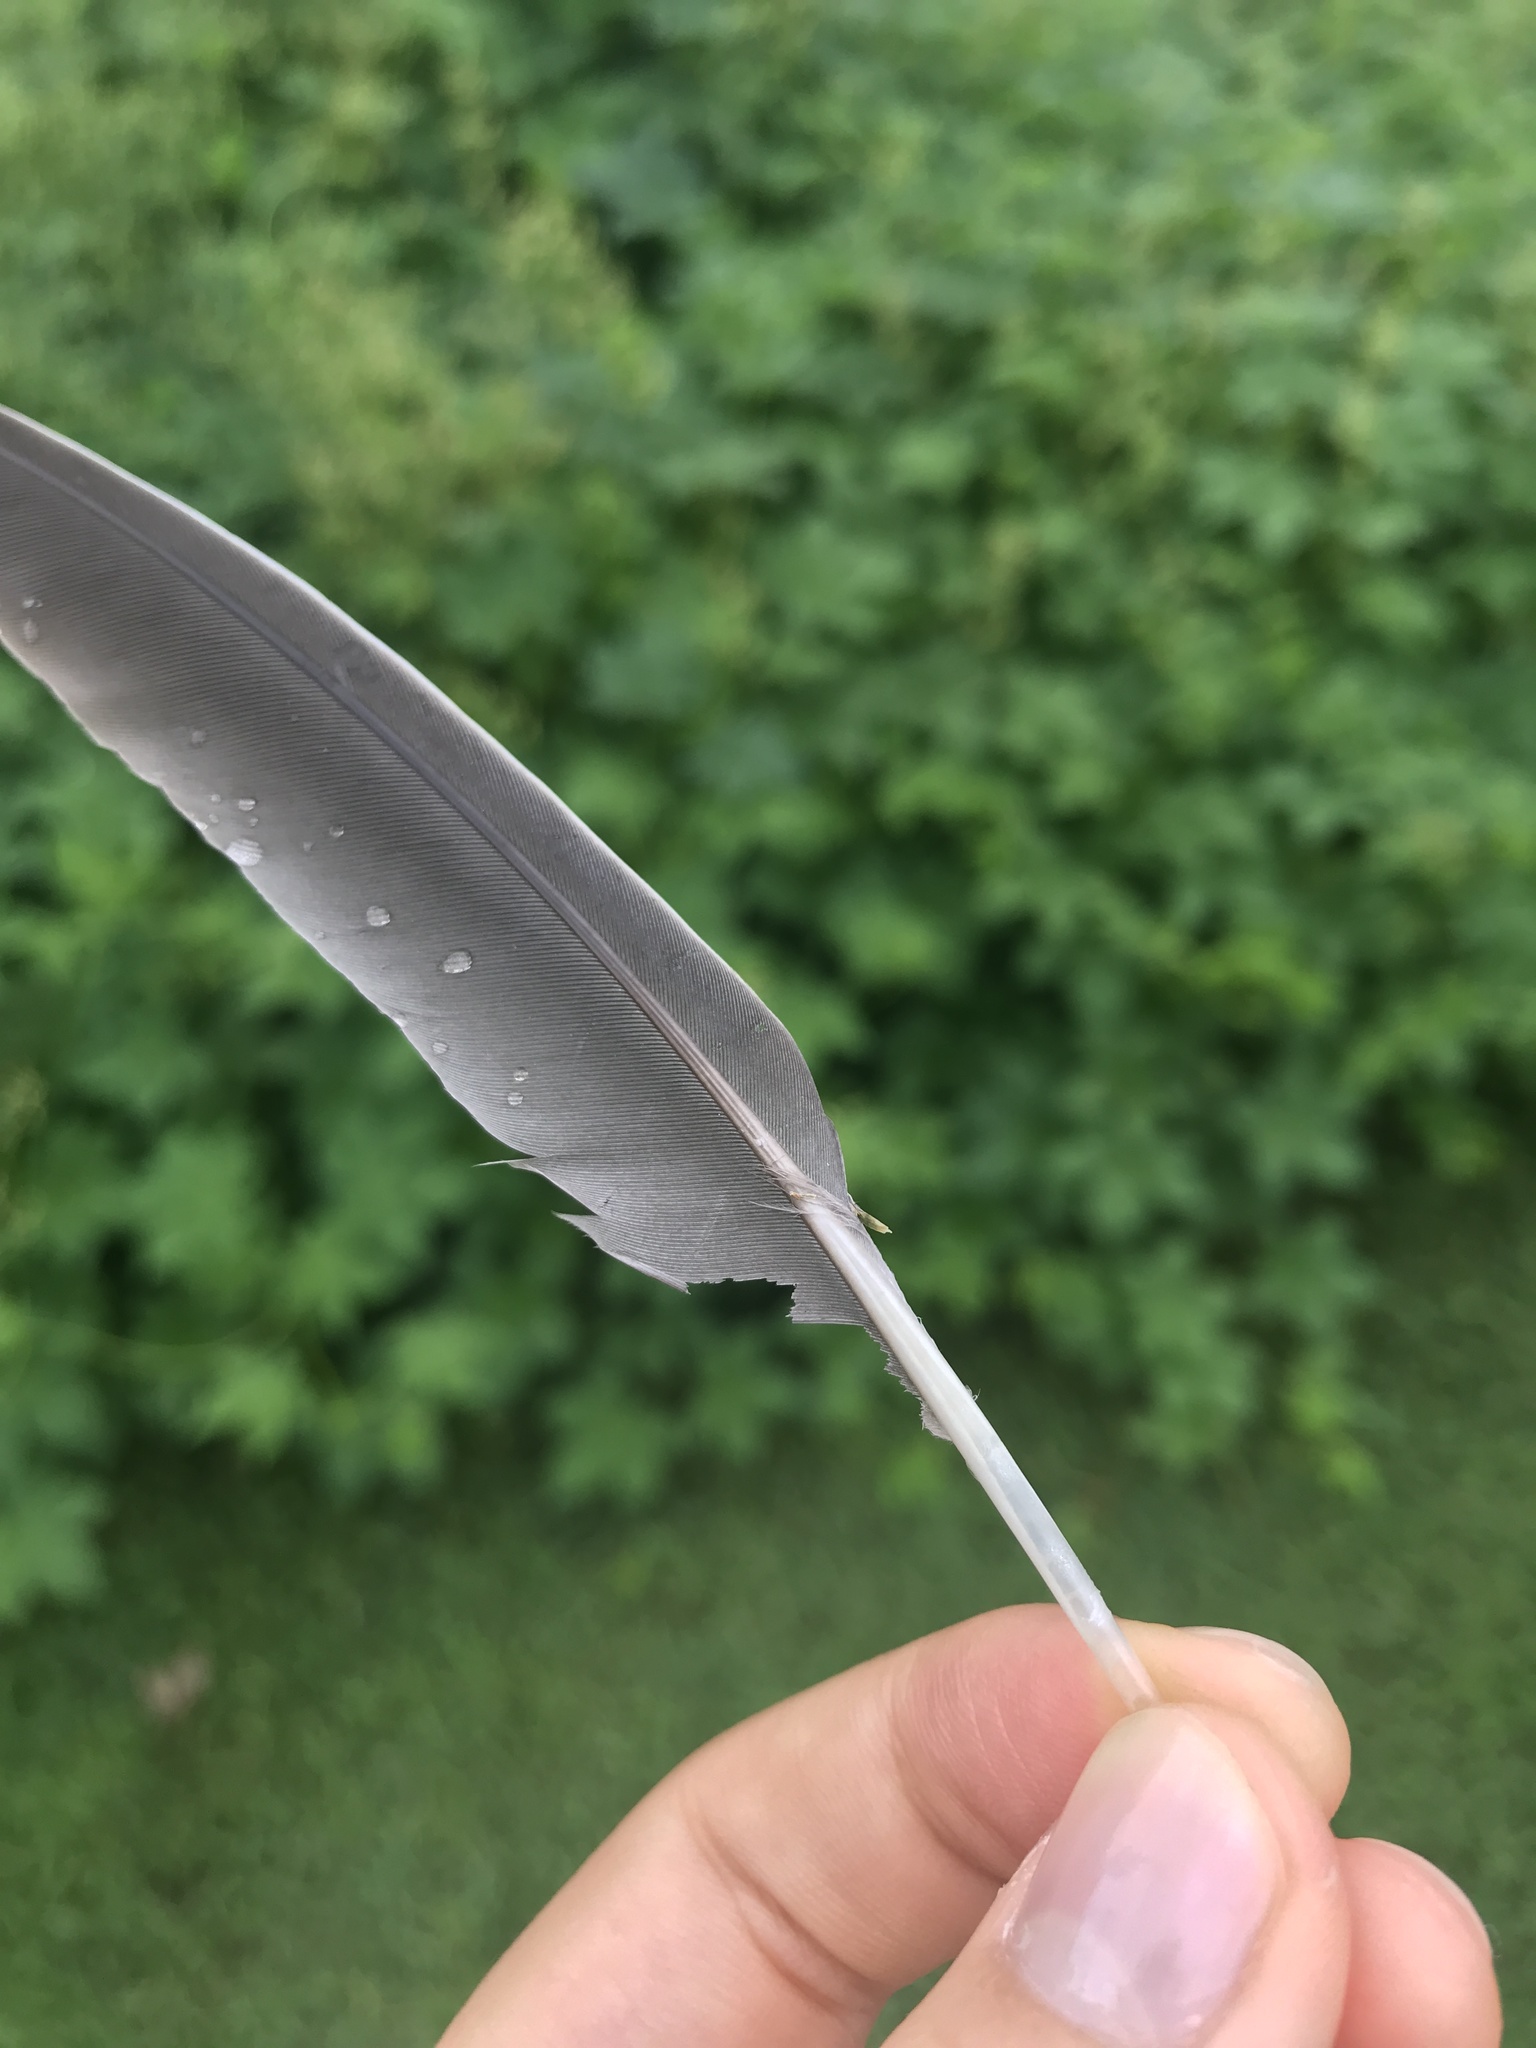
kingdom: Animalia
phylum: Chordata
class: Aves
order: Columbiformes
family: Columbidae
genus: Zenaida
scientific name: Zenaida macroura
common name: Mourning dove
